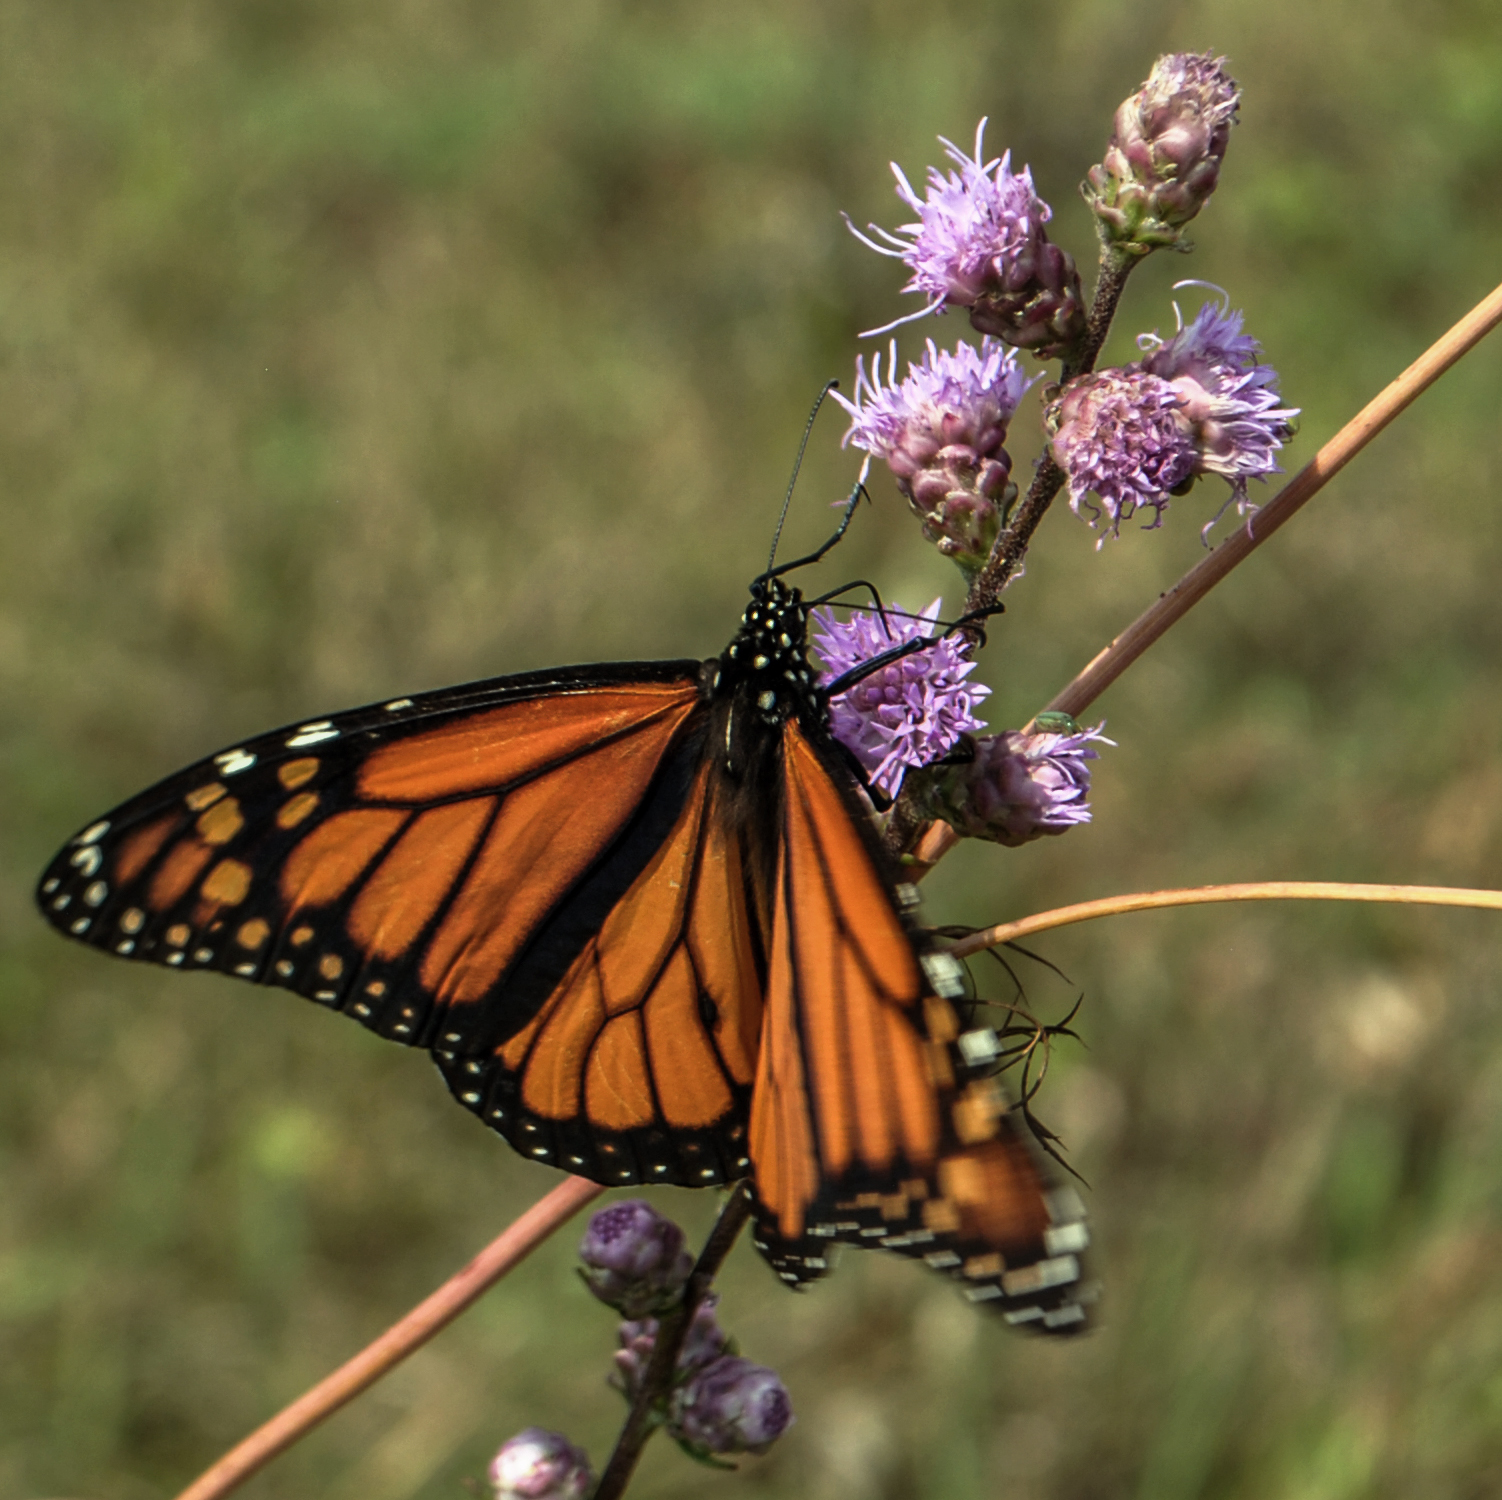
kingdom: Animalia
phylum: Arthropoda
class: Insecta
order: Lepidoptera
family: Nymphalidae
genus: Danaus
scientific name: Danaus plexippus
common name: Monarch
